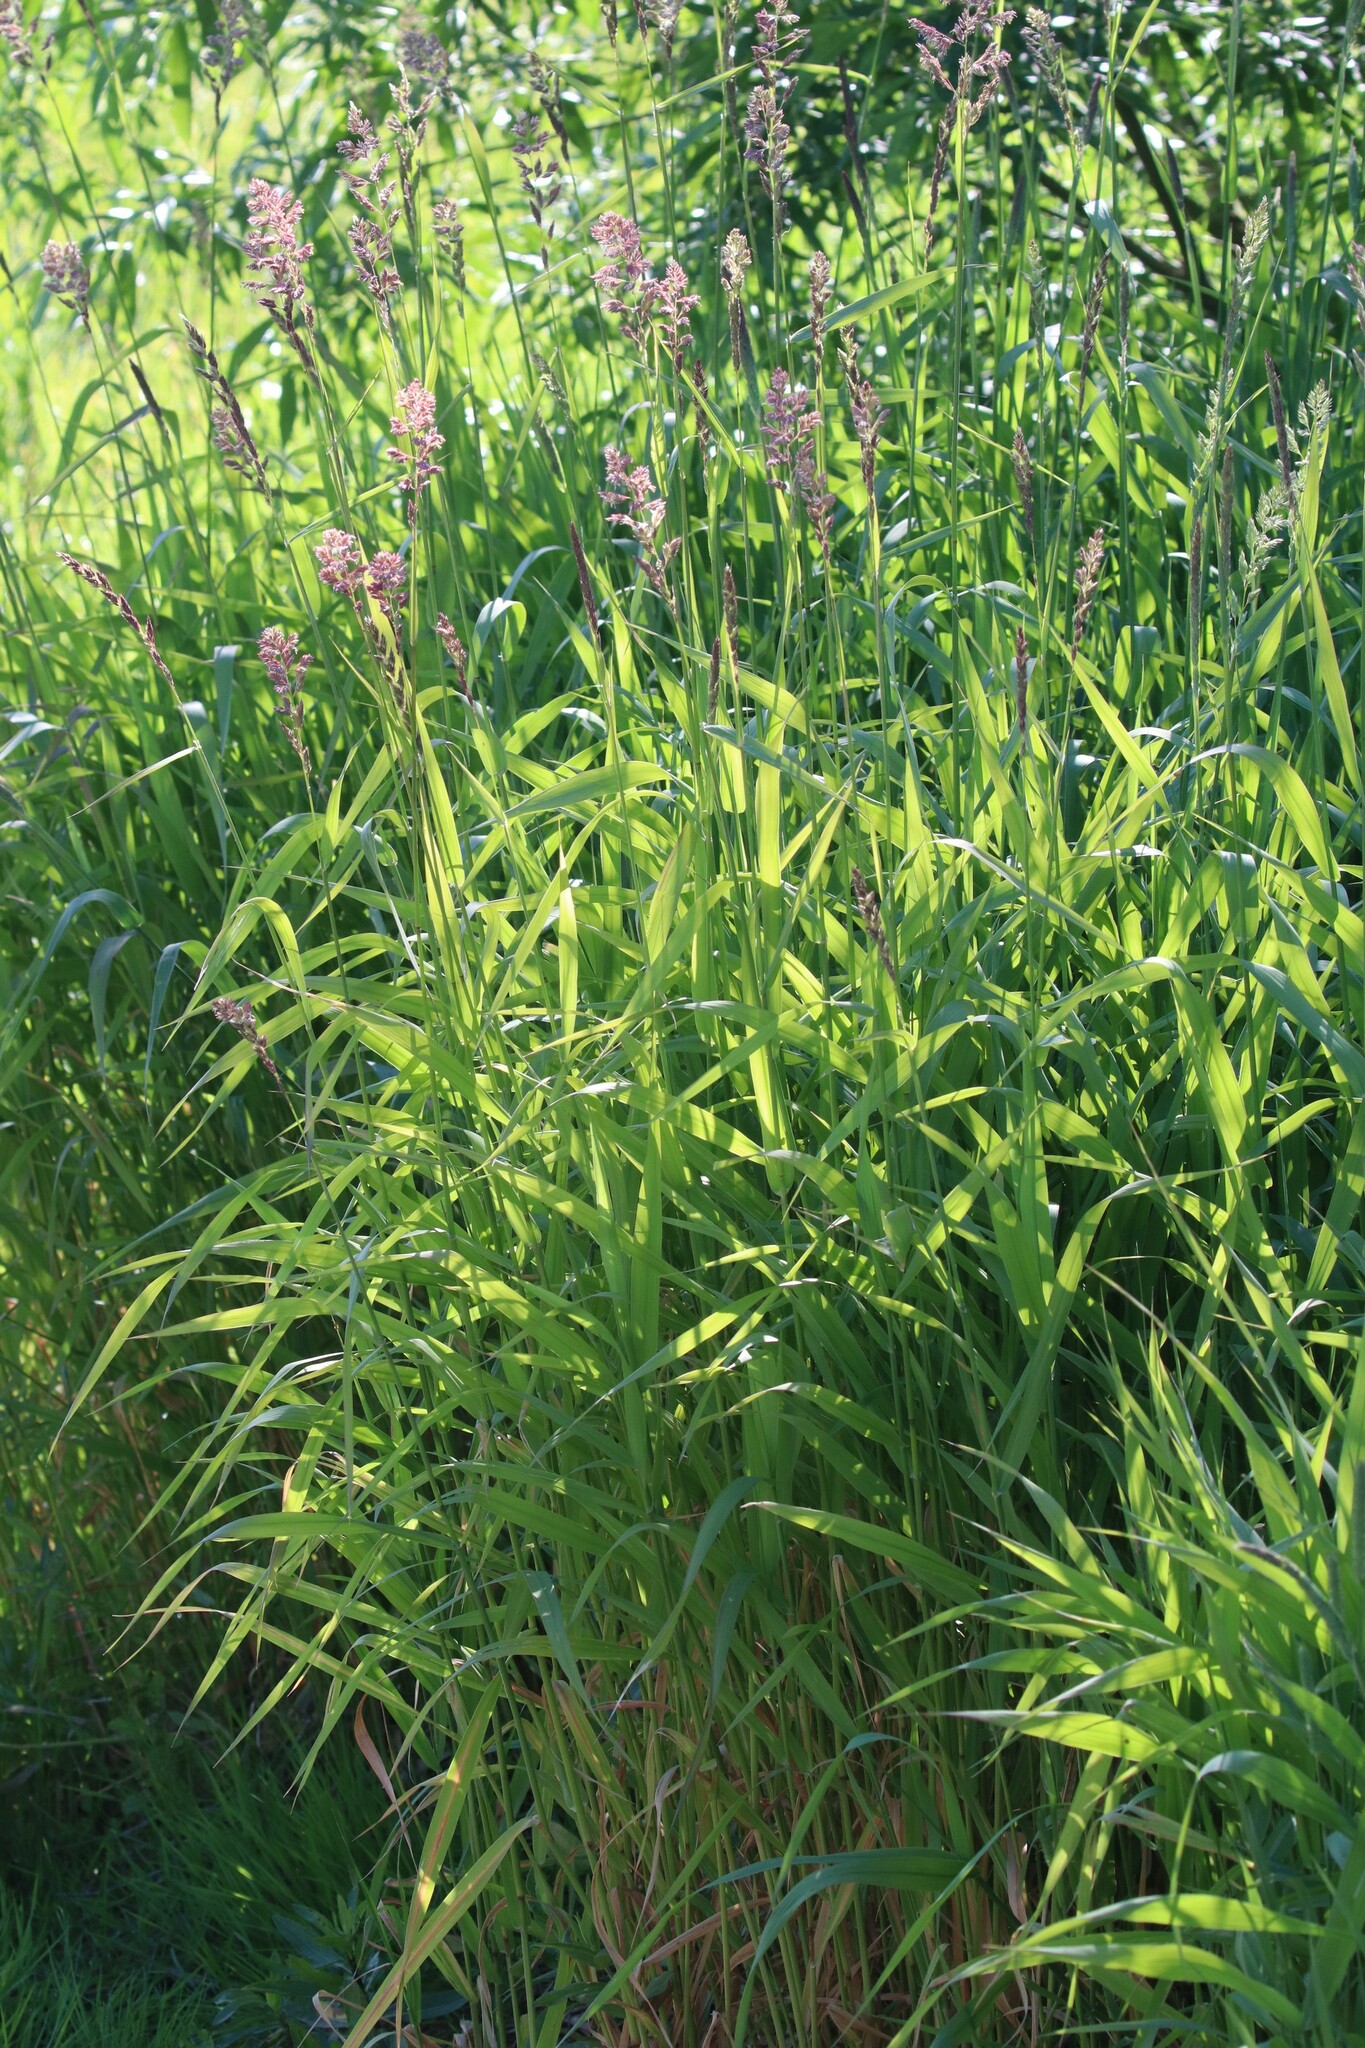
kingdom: Plantae
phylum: Tracheophyta
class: Liliopsida
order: Poales
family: Poaceae
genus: Phalaris
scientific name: Phalaris arundinacea
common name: Reed canary-grass
